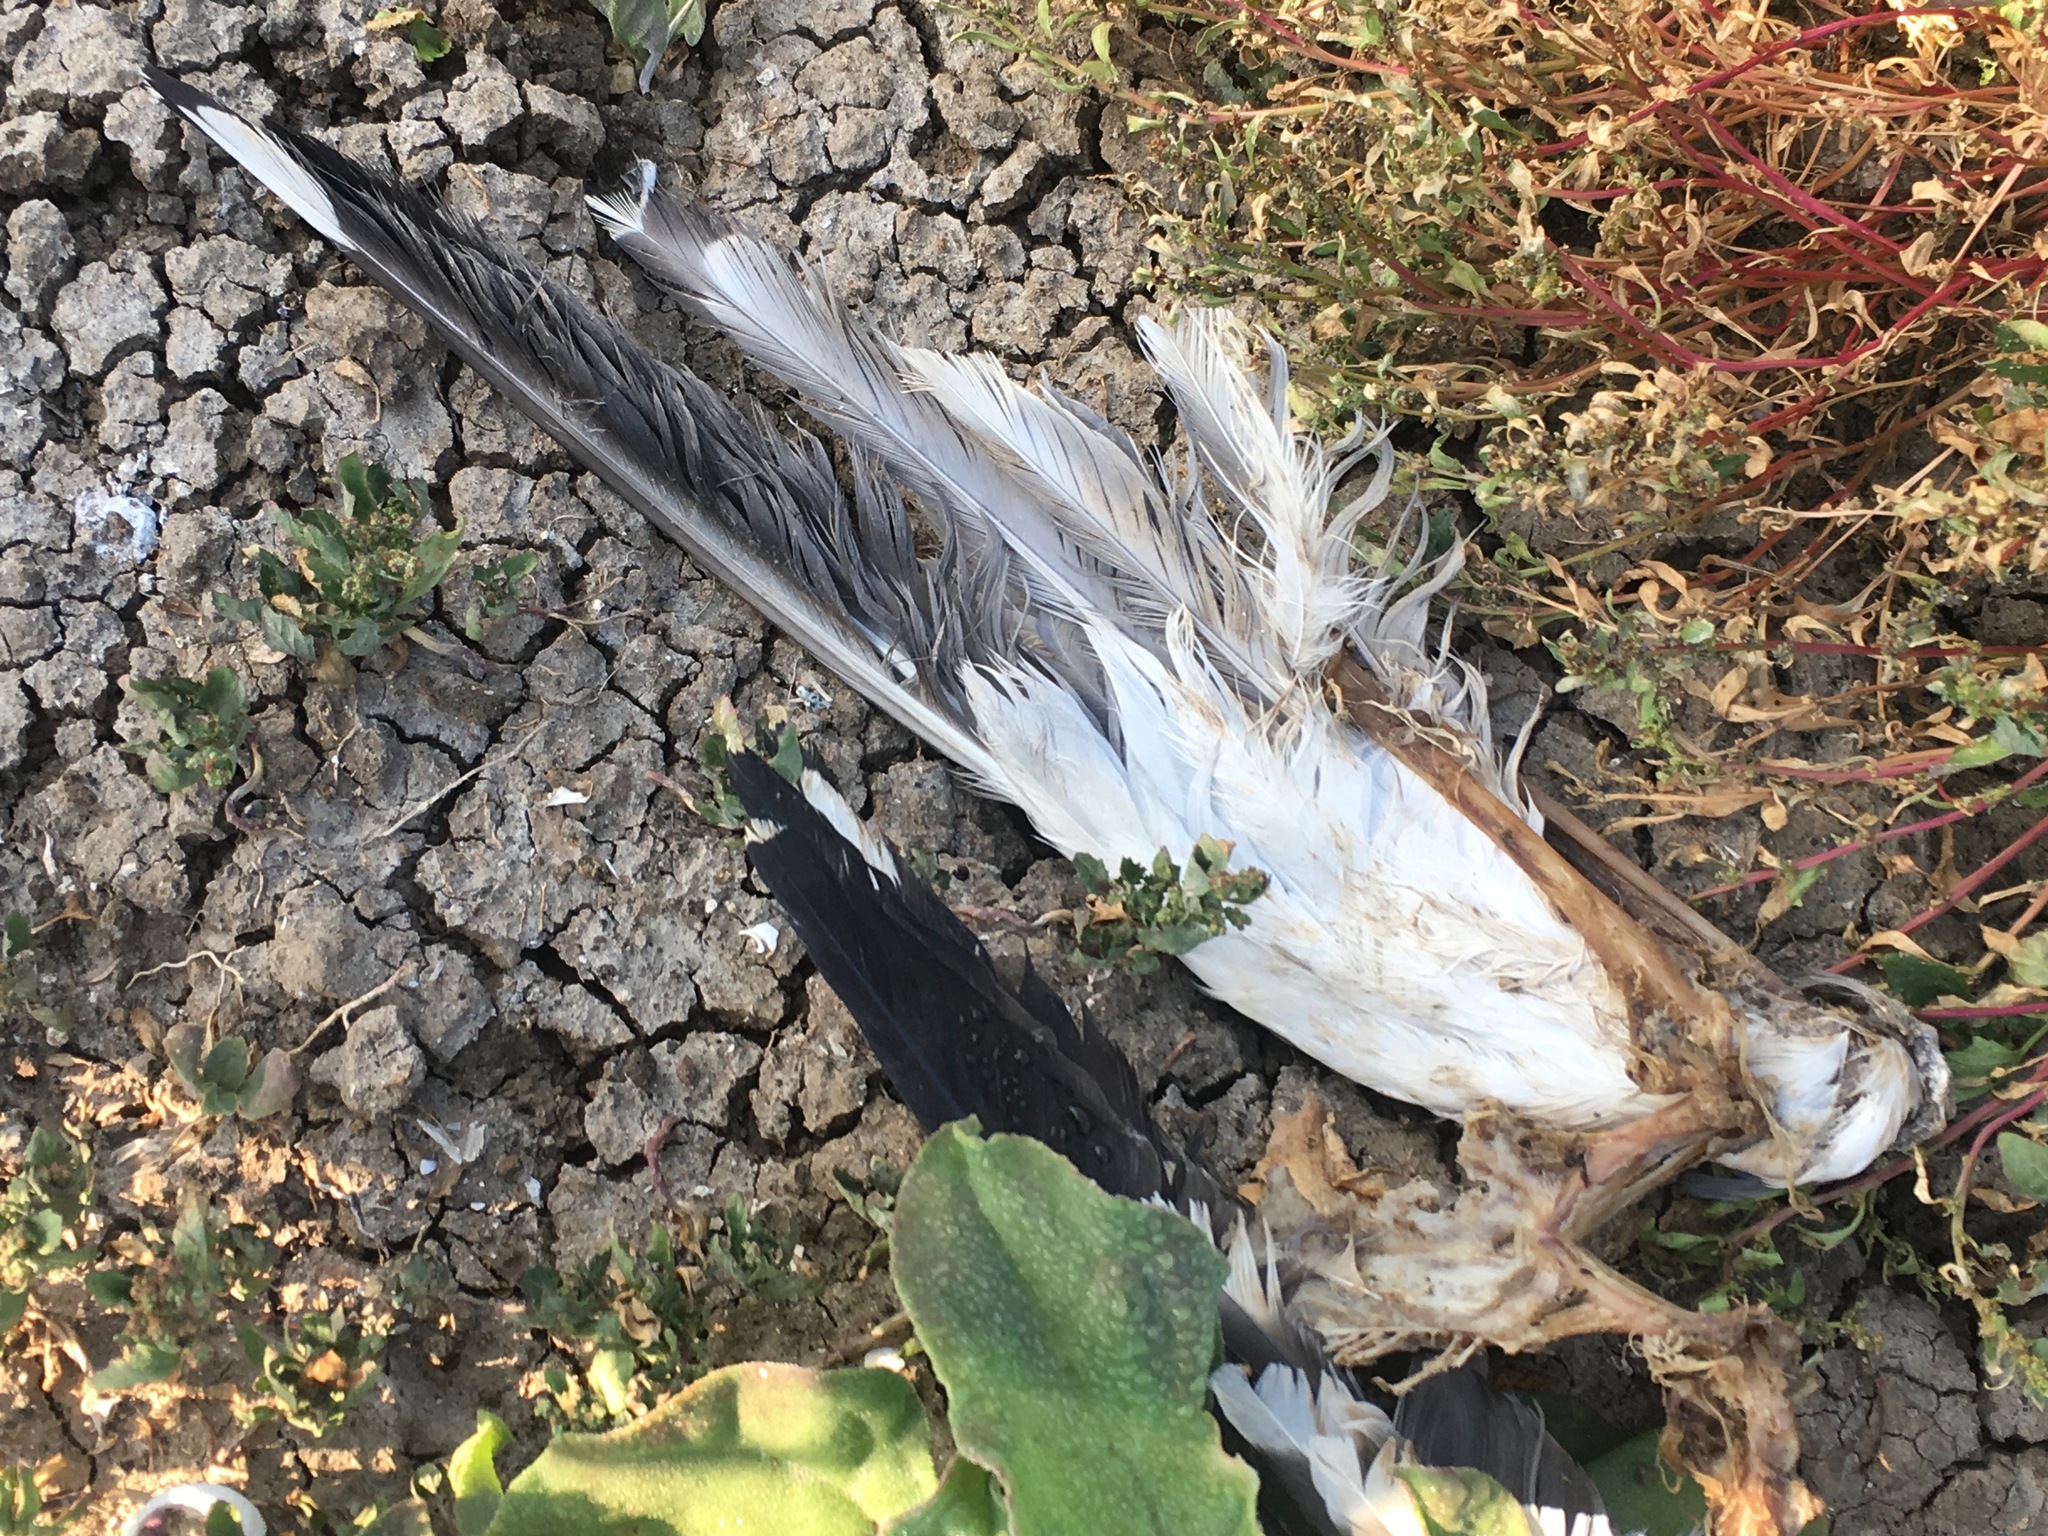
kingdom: Animalia
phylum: Chordata
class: Aves
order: Charadriiformes
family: Laridae
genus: Larus
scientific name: Larus occidentalis
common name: Western gull
